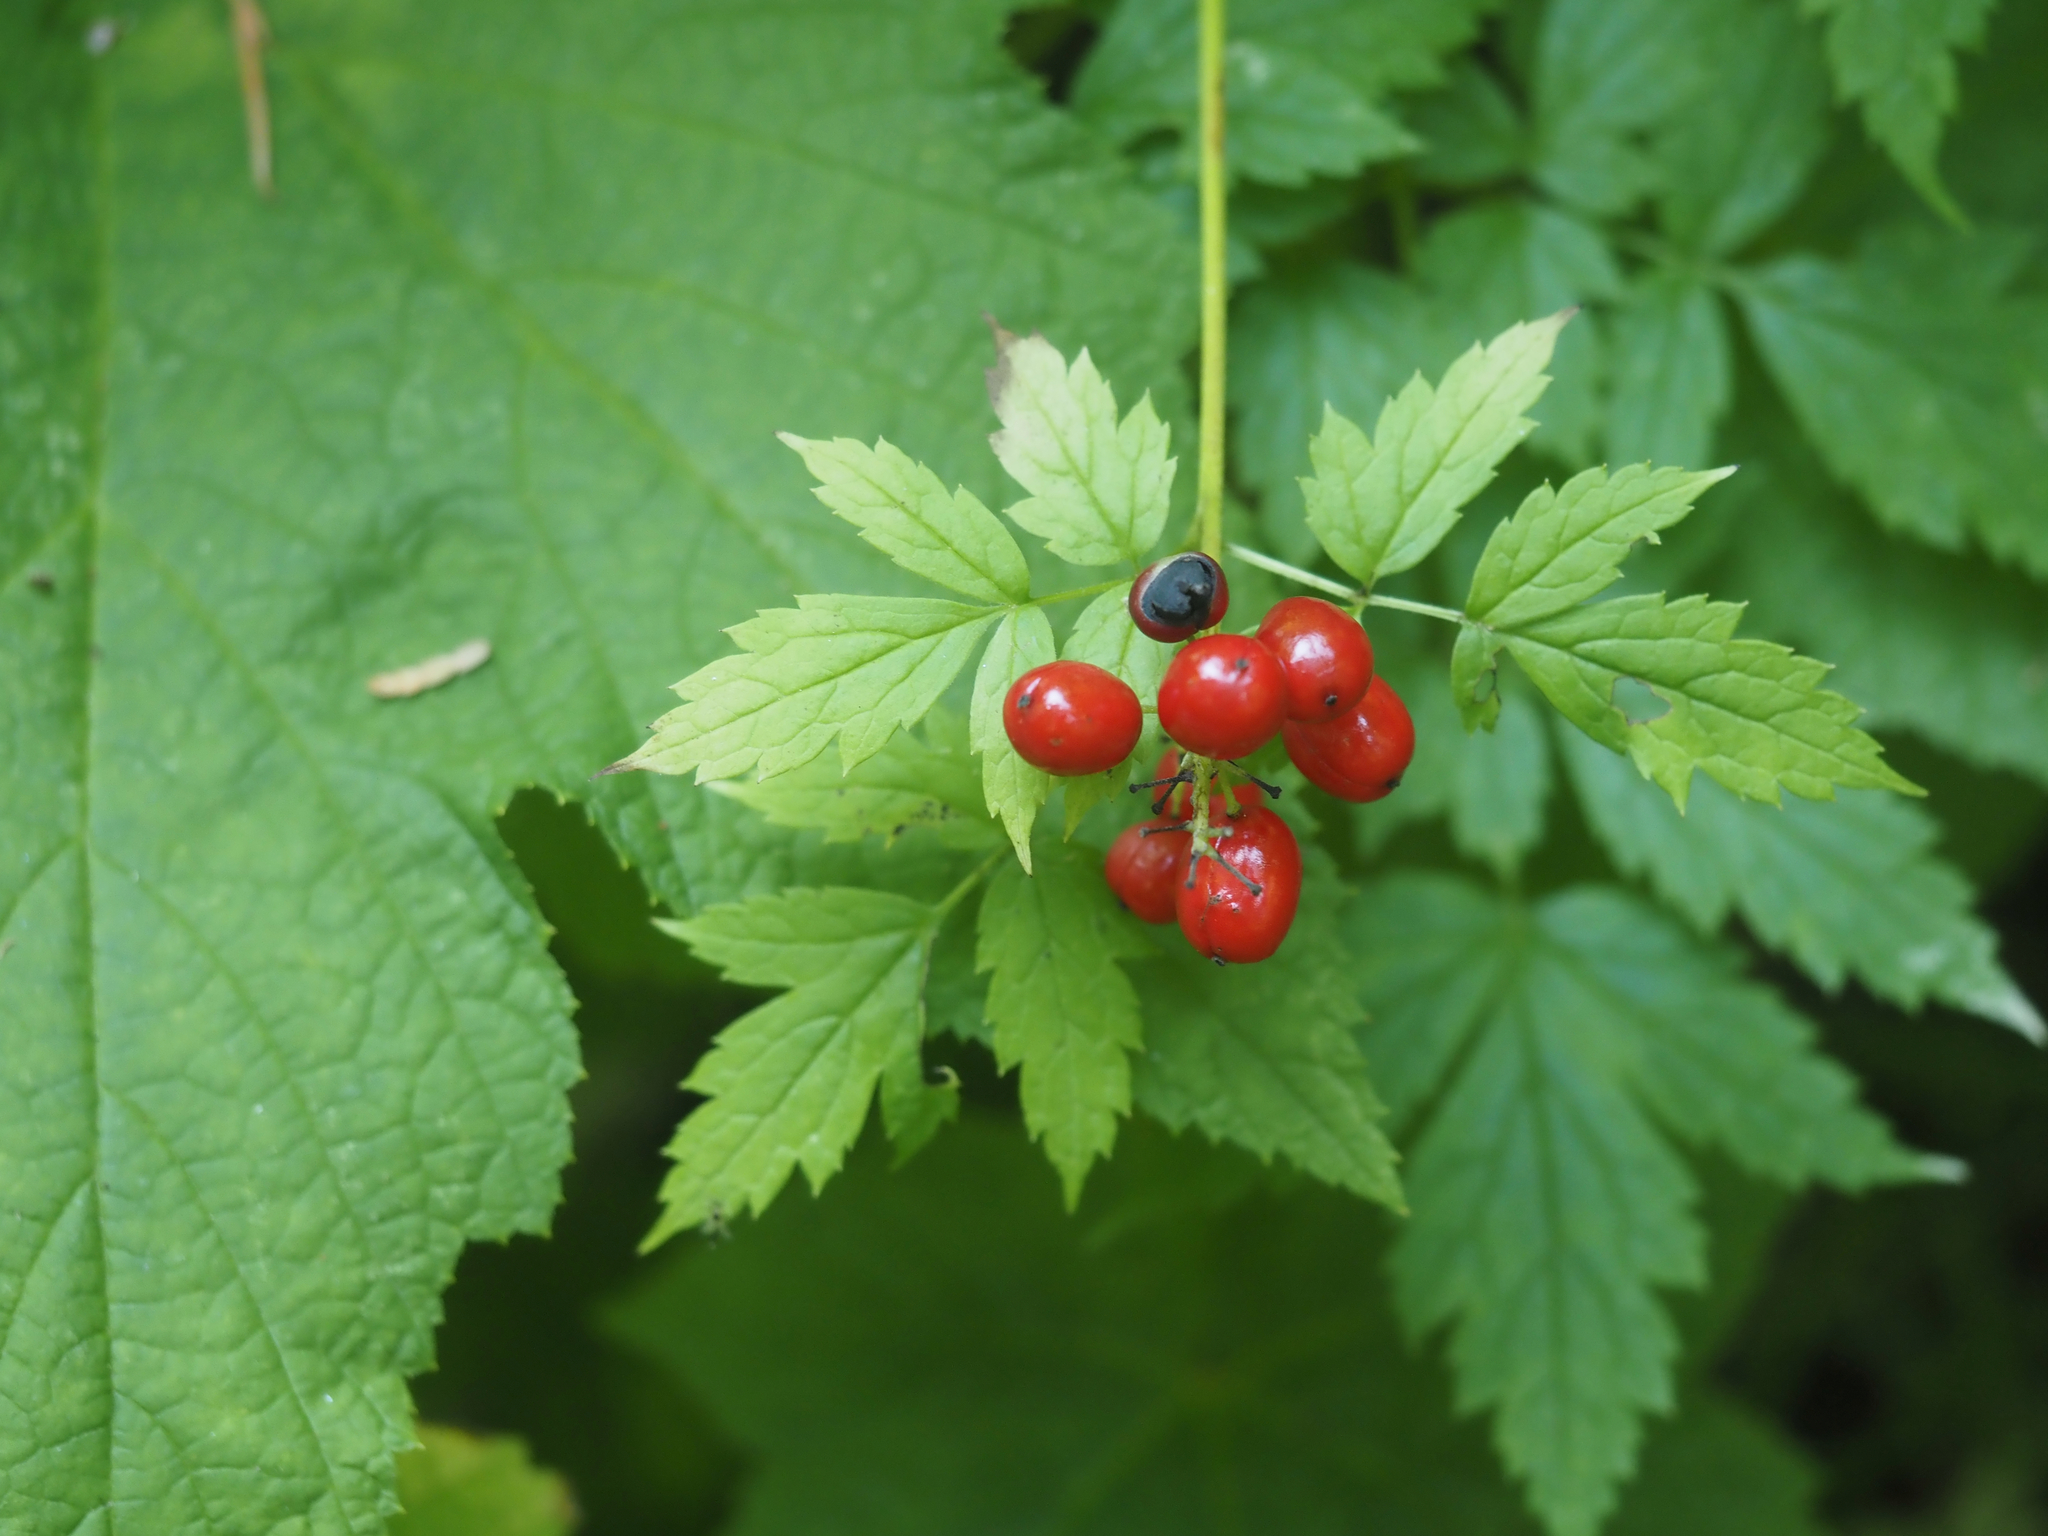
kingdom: Plantae
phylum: Tracheophyta
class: Magnoliopsida
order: Ranunculales
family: Ranunculaceae
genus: Actaea
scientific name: Actaea rubra
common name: Red baneberry
